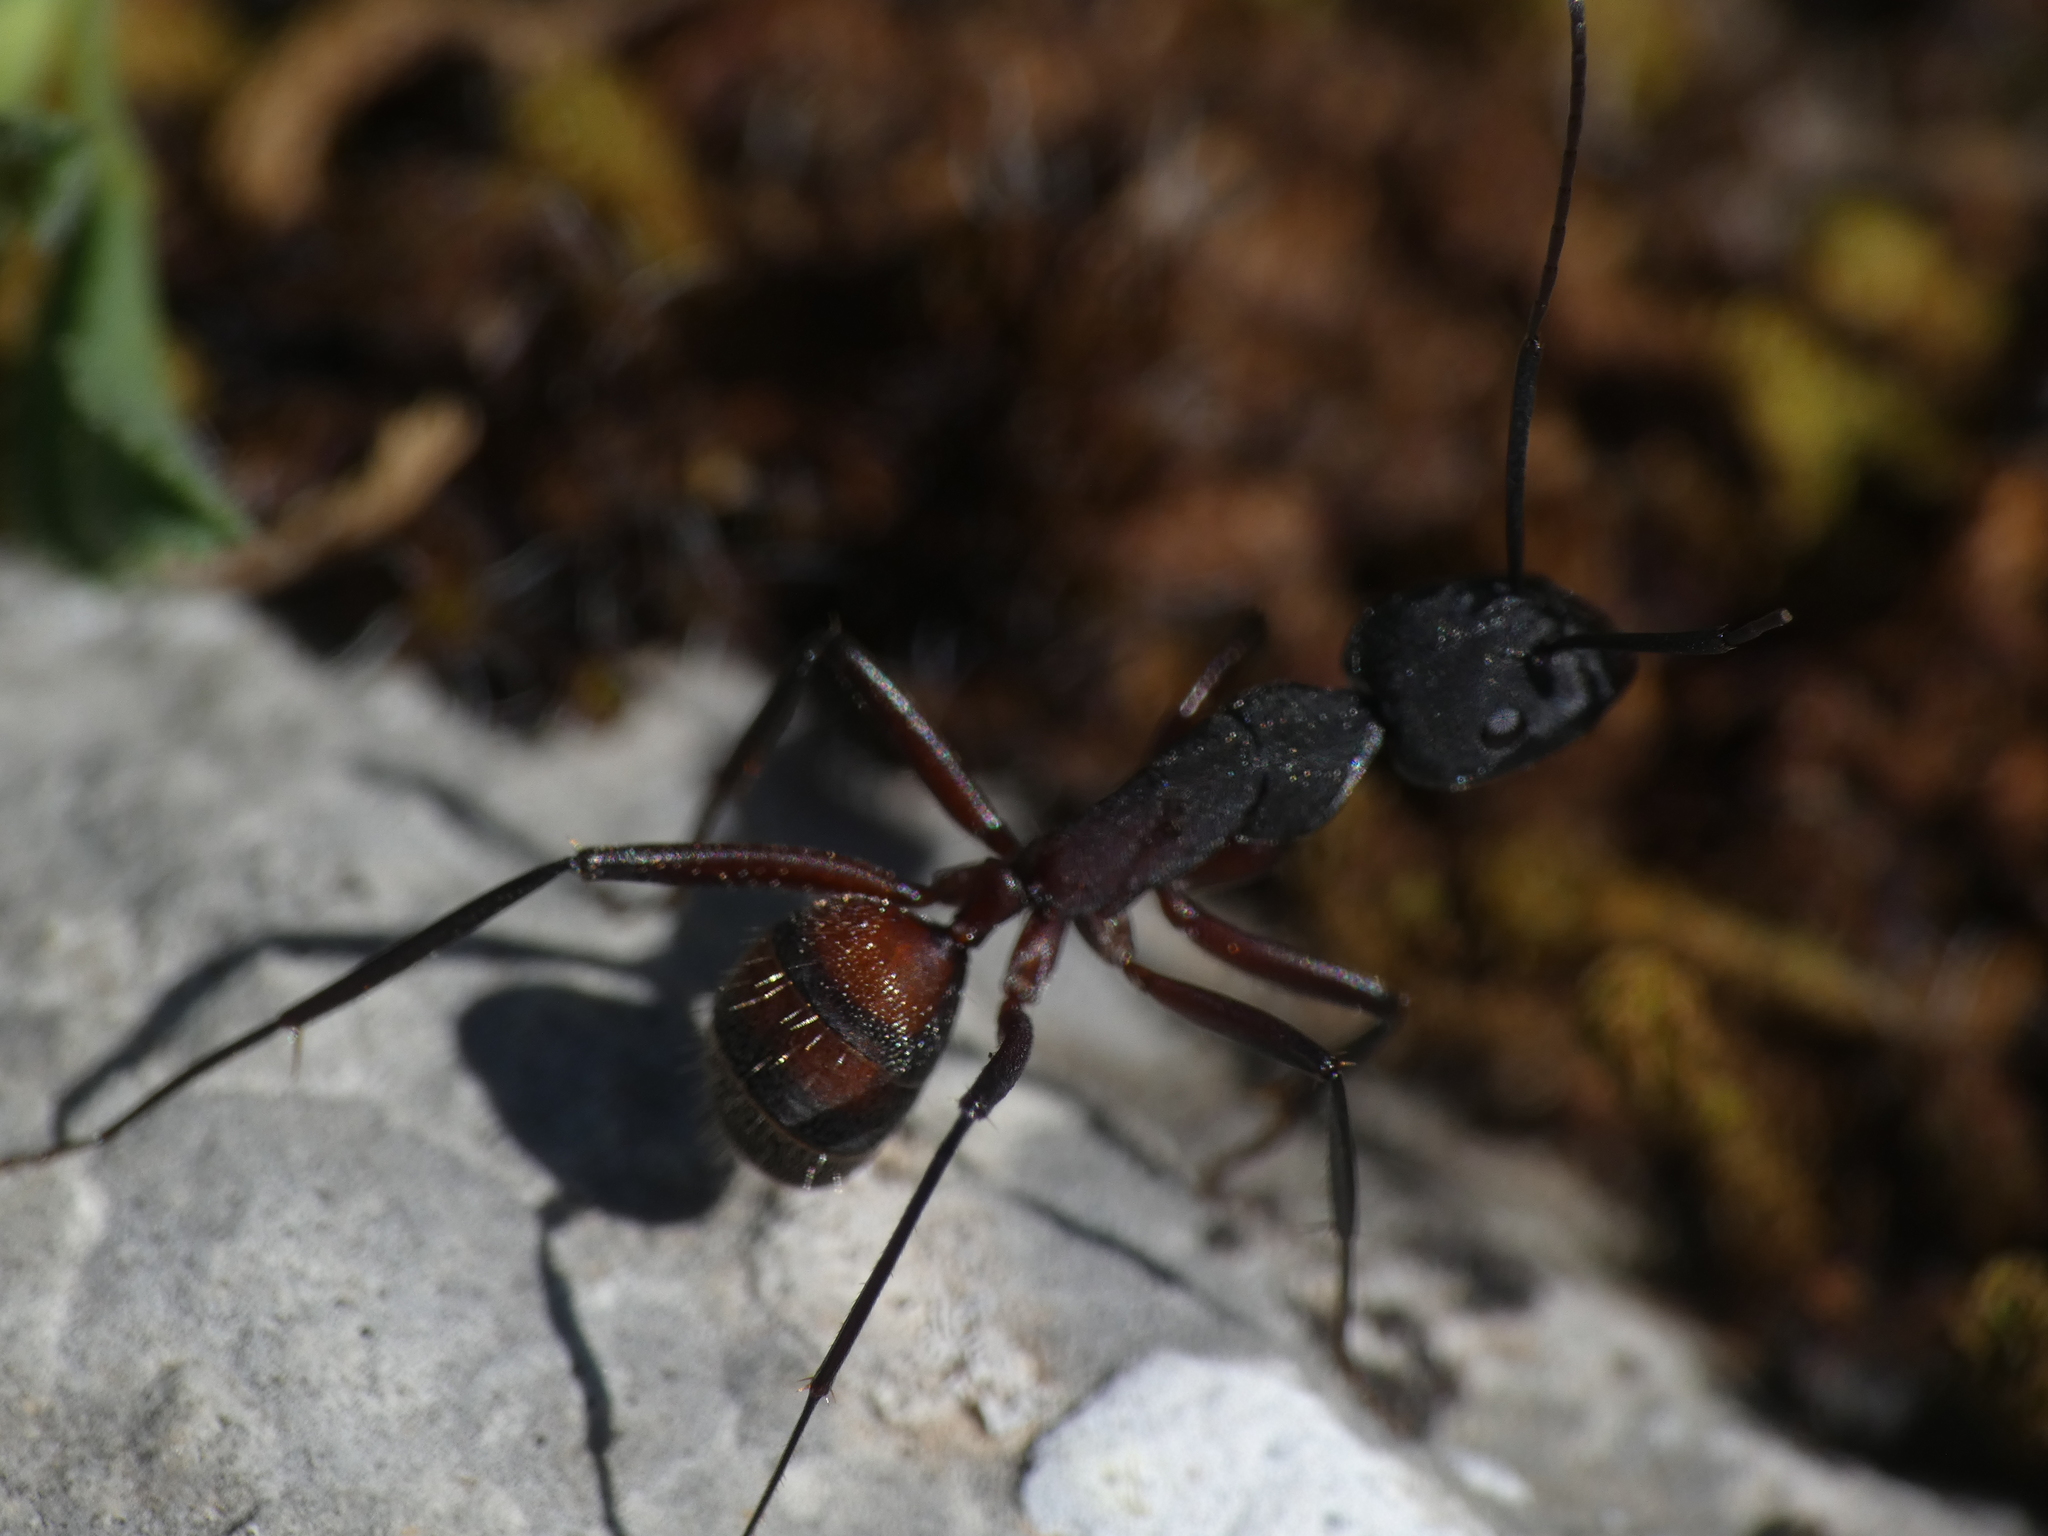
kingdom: Animalia
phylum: Arthropoda
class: Insecta
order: Hymenoptera
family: Formicidae
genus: Camponotus
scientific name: Camponotus cruentatus
